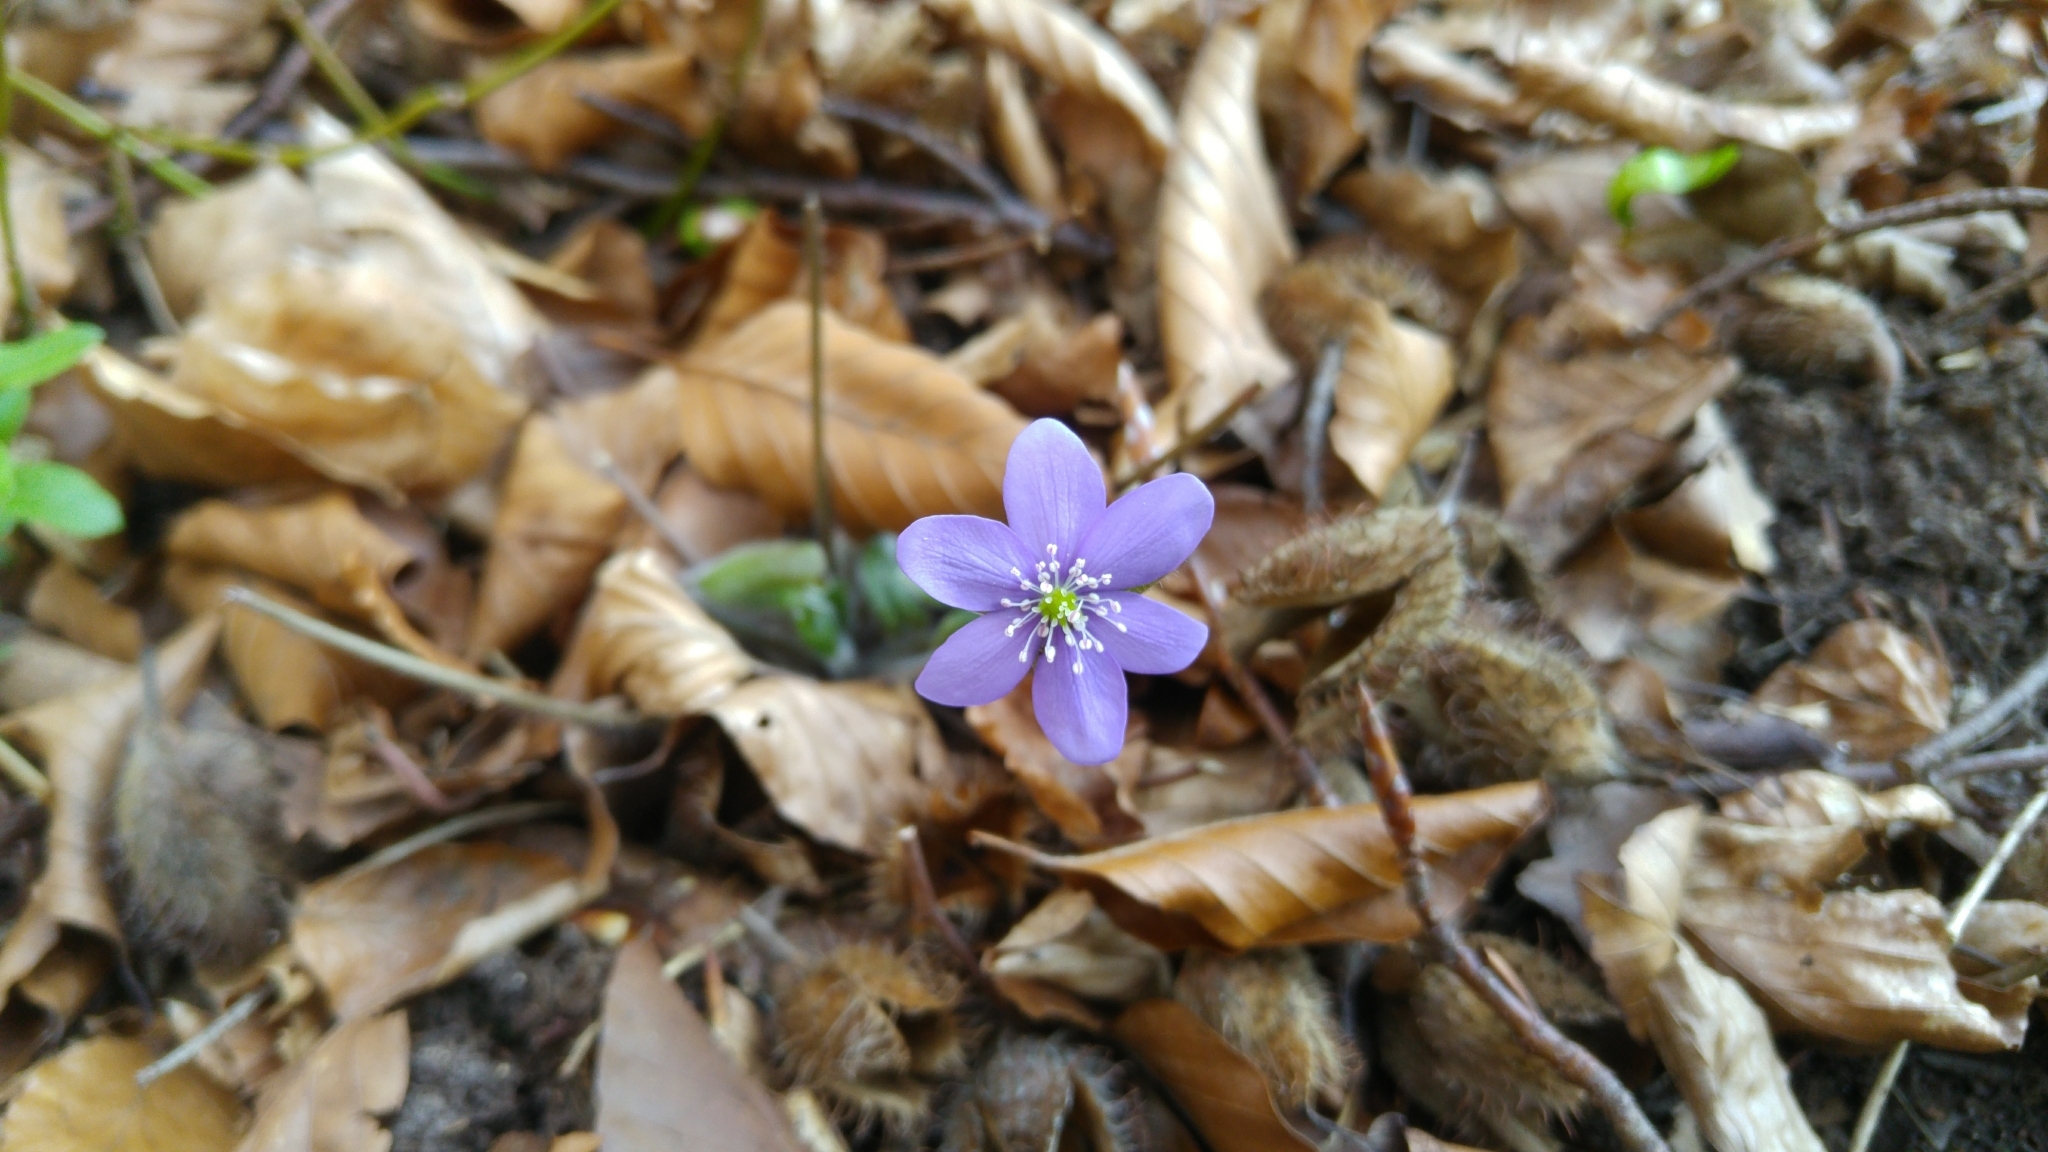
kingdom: Plantae
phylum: Tracheophyta
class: Magnoliopsida
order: Ranunculales
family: Ranunculaceae
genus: Hepatica
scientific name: Hepatica nobilis
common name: Liverleaf
